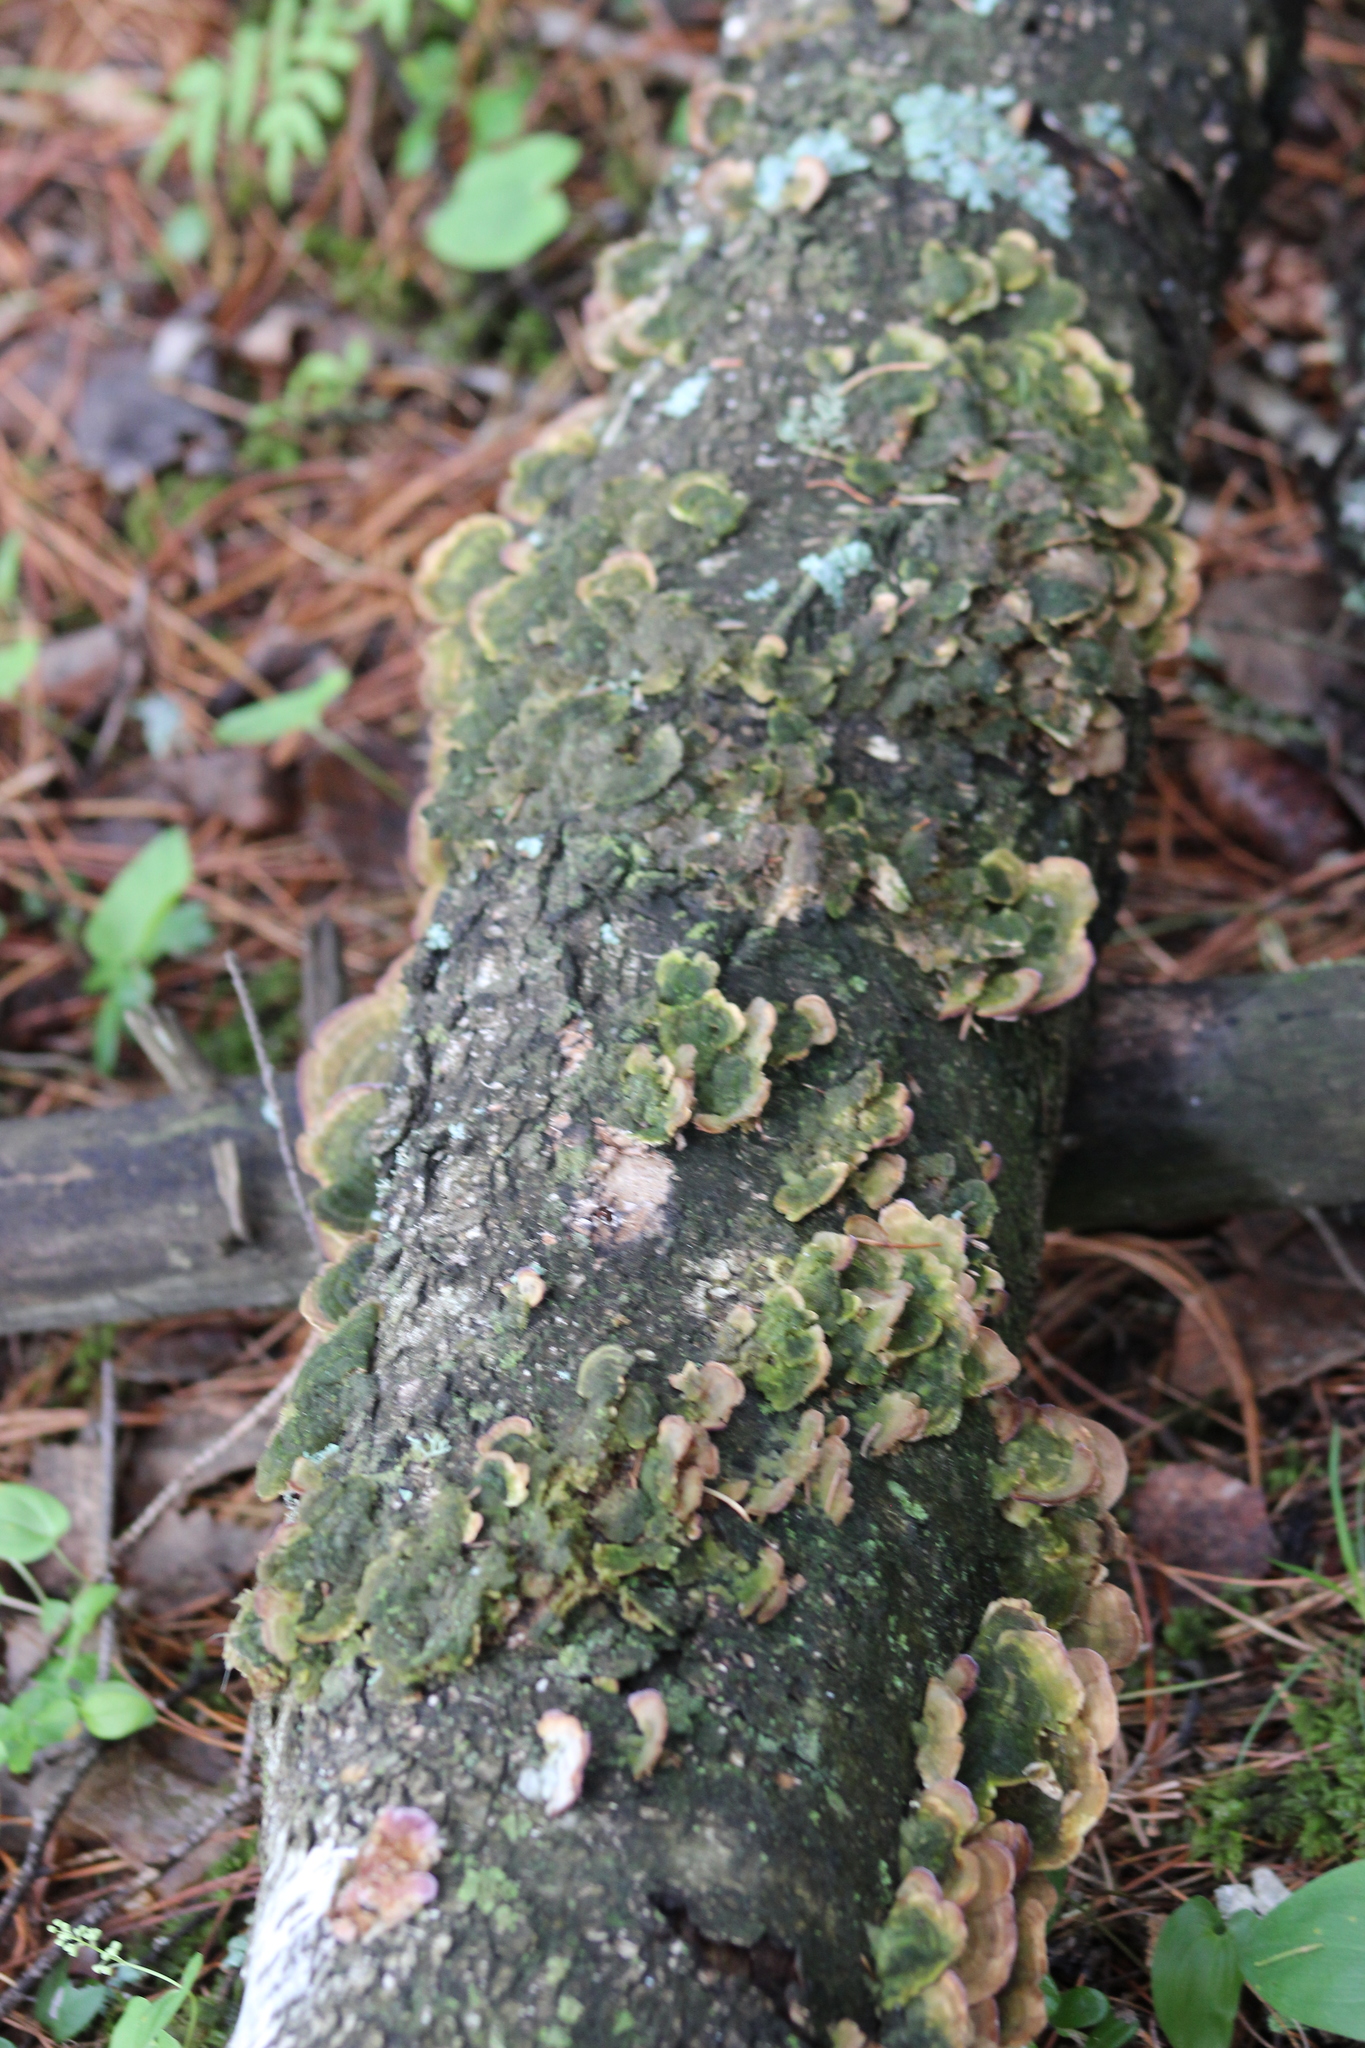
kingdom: Fungi
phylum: Basidiomycota
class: Agaricomycetes
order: Hymenochaetales
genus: Trichaptum
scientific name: Trichaptum biforme
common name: Violet-toothed polypore
